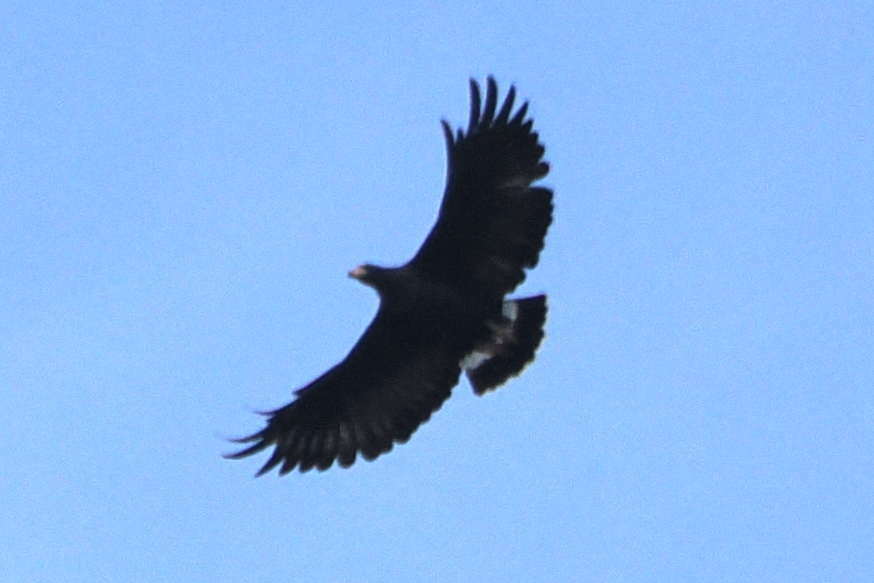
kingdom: Animalia
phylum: Chordata
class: Aves
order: Accipitriformes
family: Accipitridae
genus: Buteogallus
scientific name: Buteogallus anthracinus
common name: Common black hawk
